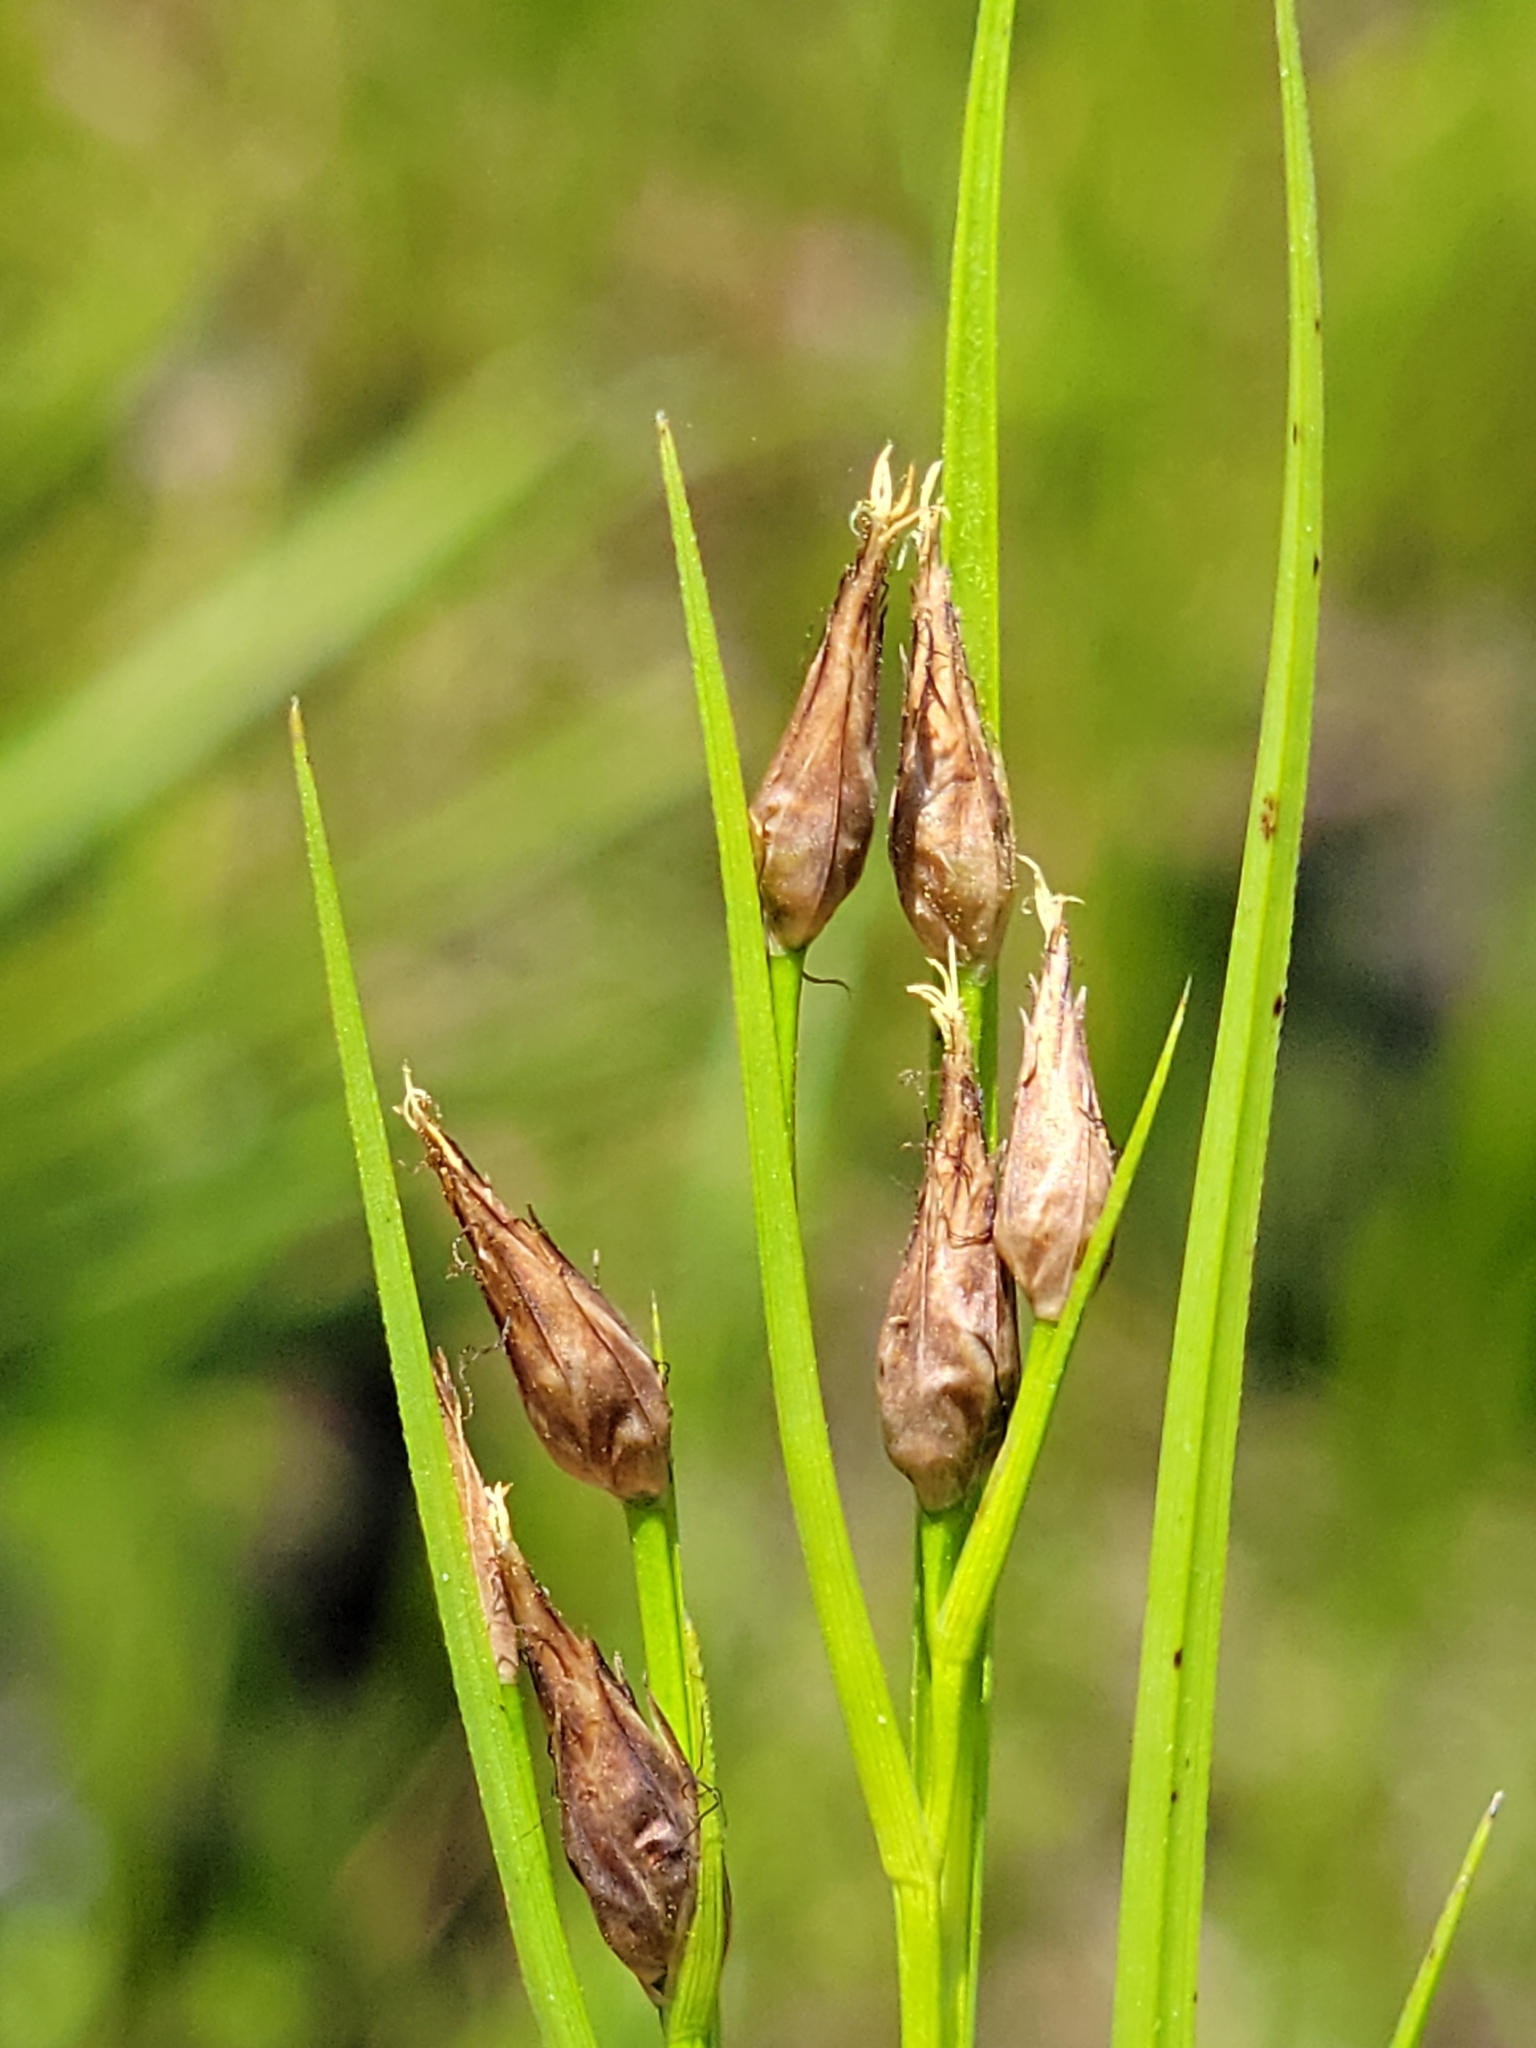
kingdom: Plantae
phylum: Tracheophyta
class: Liliopsida
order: Poales
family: Cyperaceae
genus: Rhynchospora
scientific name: Rhynchospora eximia
